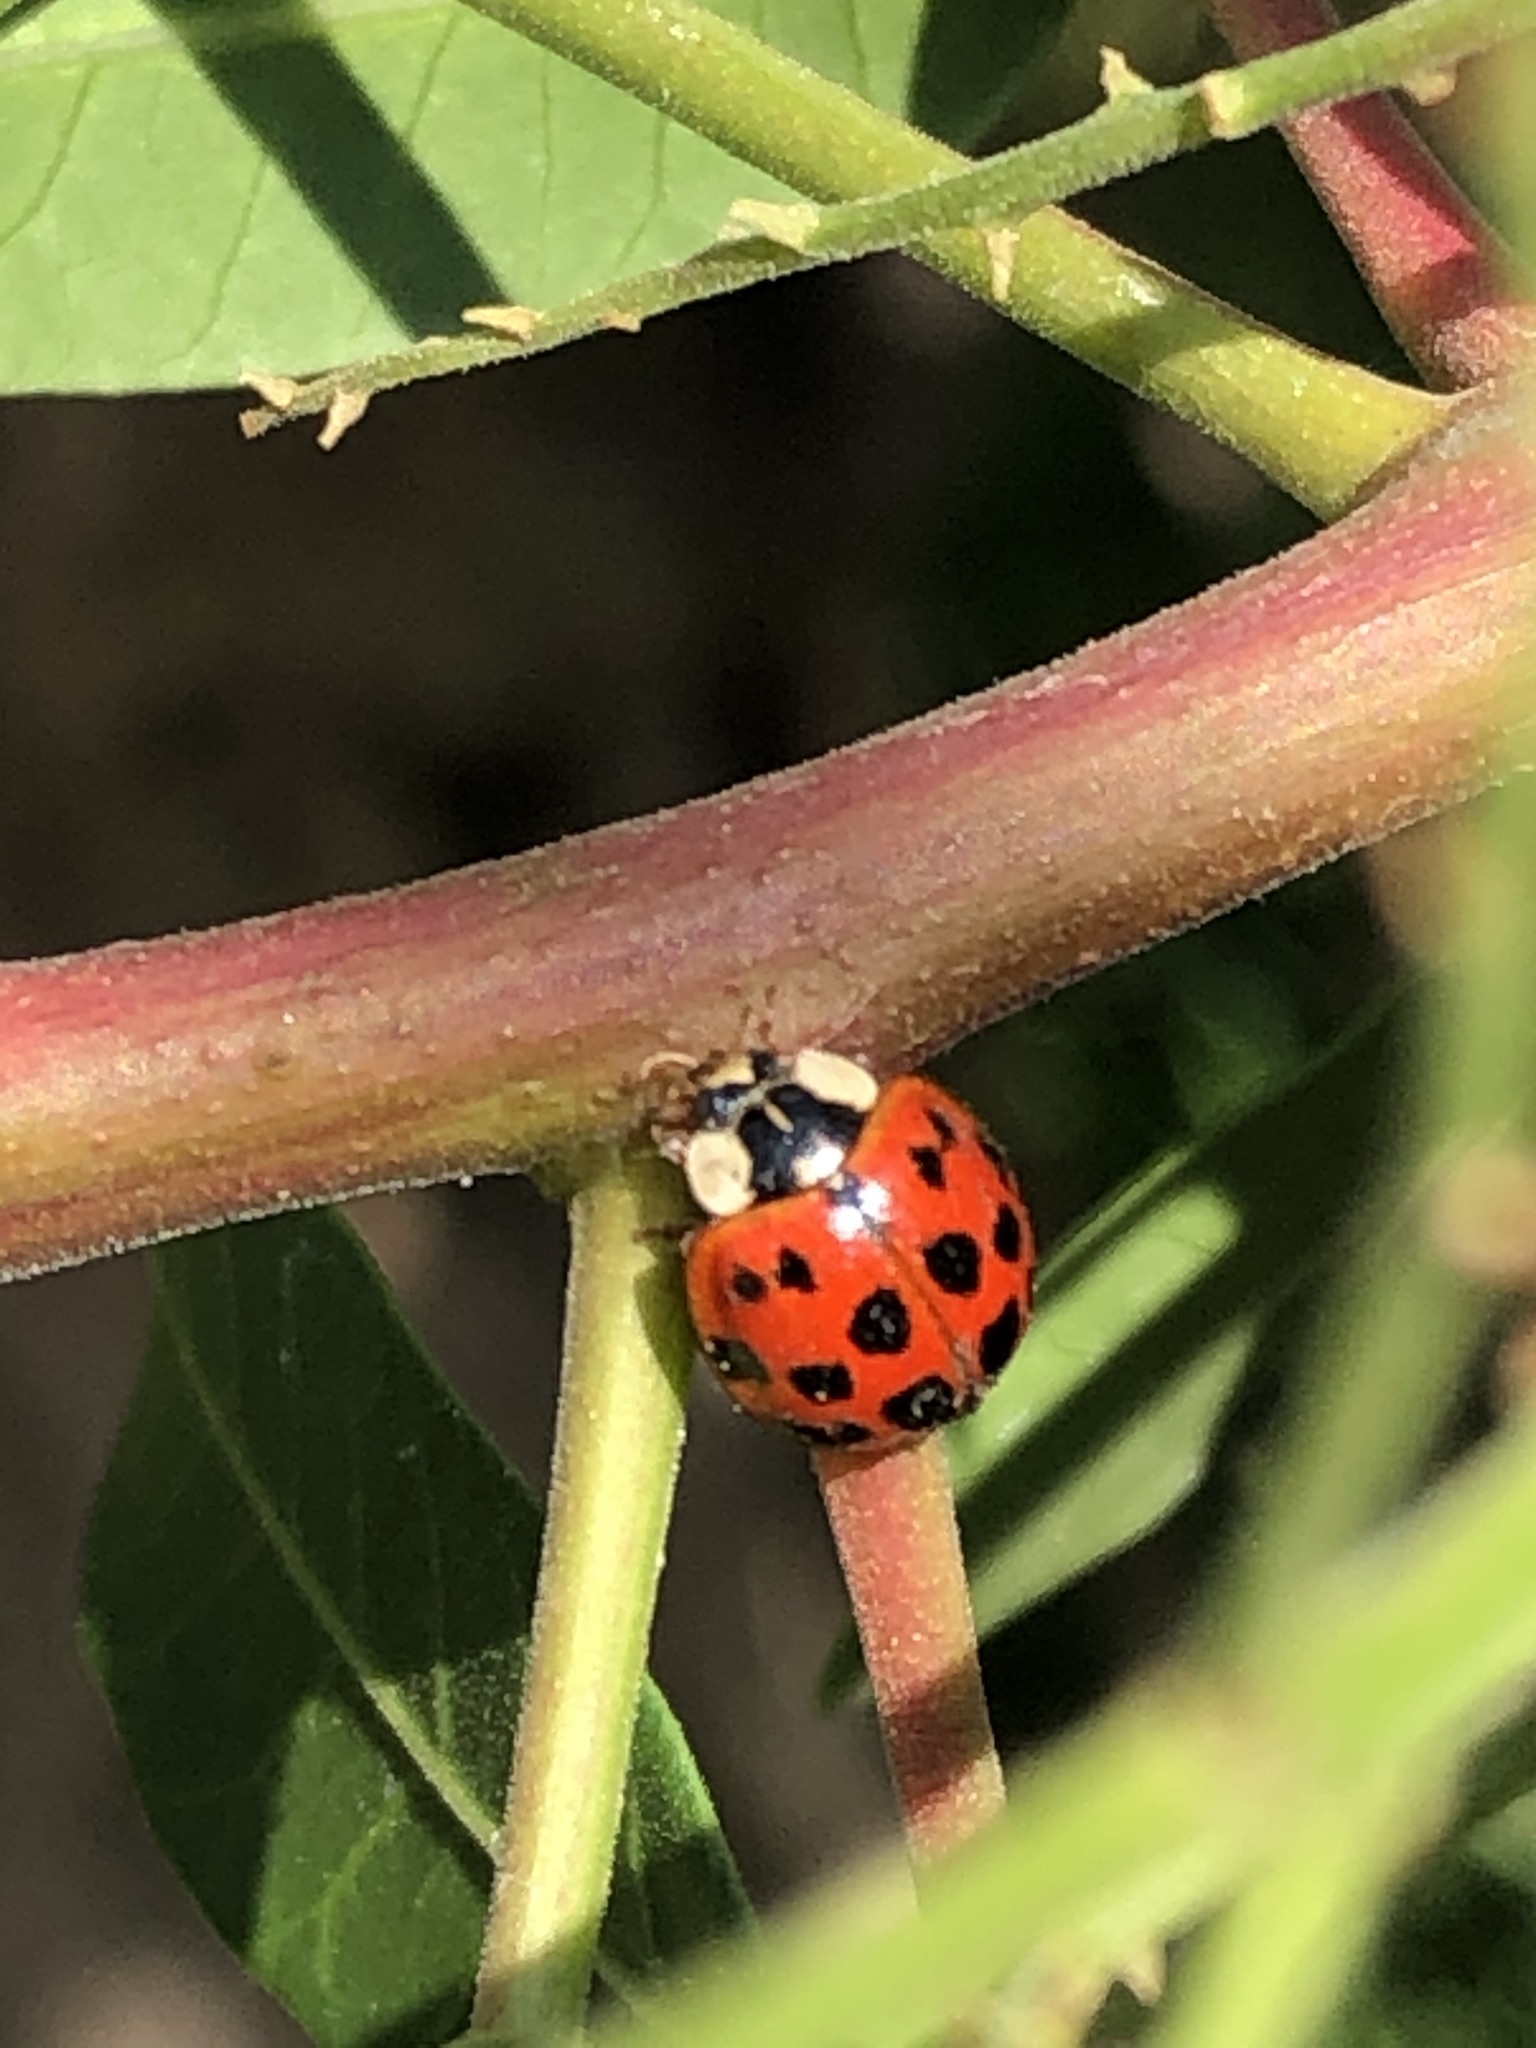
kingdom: Animalia
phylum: Arthropoda
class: Insecta
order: Coleoptera
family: Coccinellidae
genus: Harmonia
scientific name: Harmonia axyridis
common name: Harlequin ladybird
